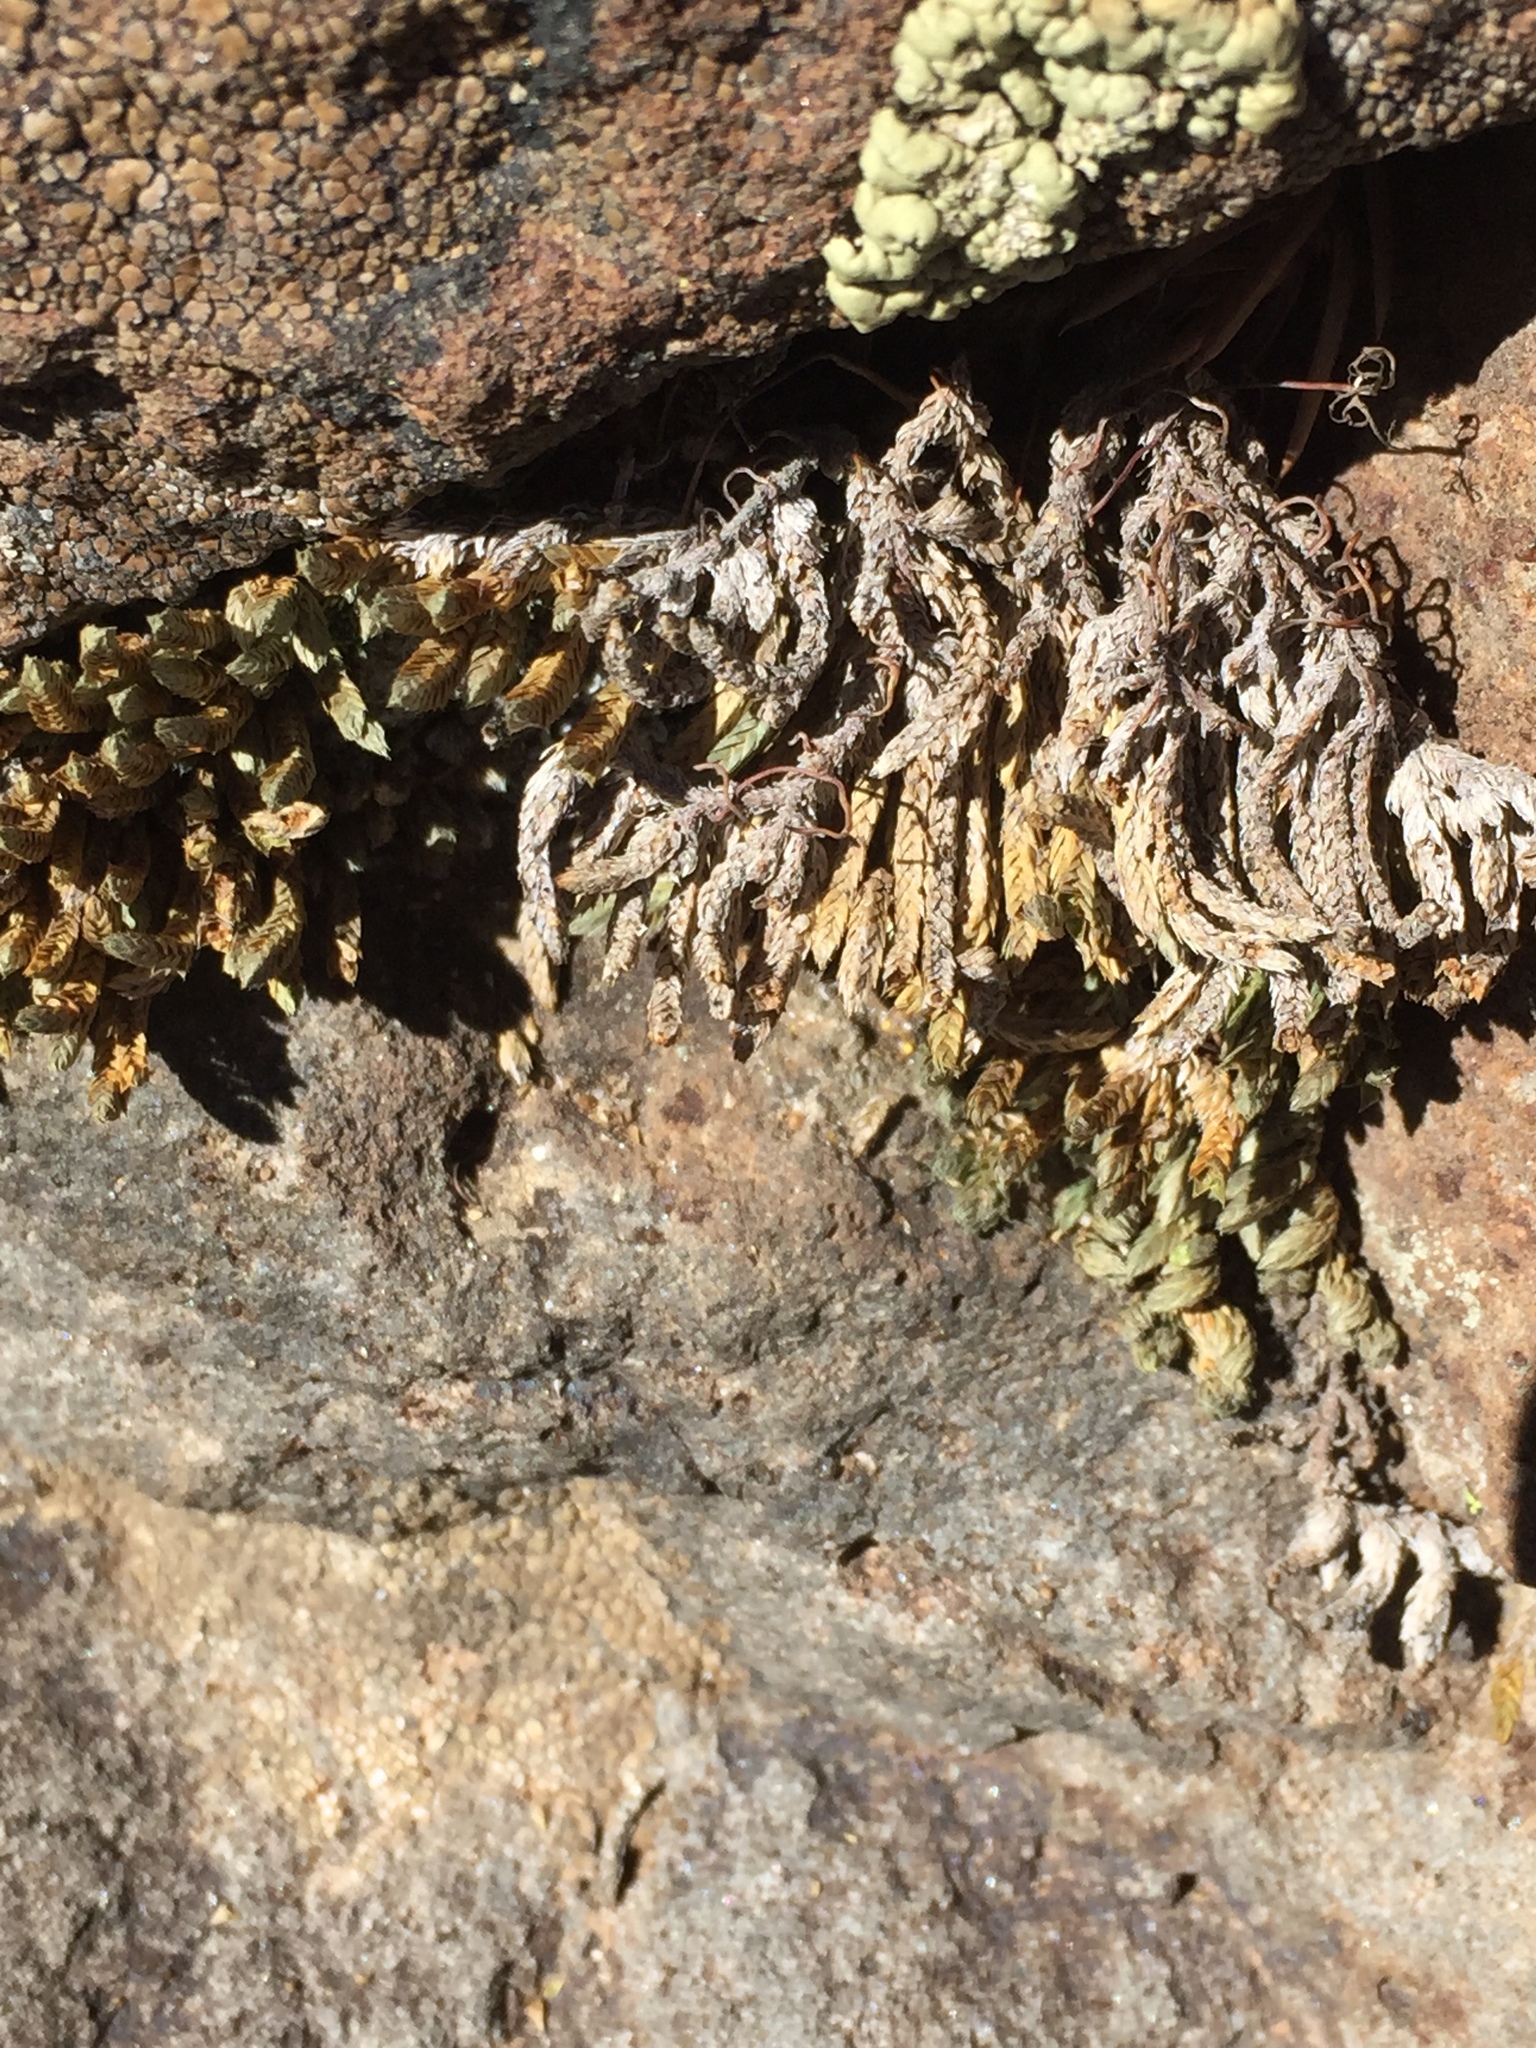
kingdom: Plantae
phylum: Tracheophyta
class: Lycopodiopsida
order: Selaginellales
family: Selaginellaceae
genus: Selaginella
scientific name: Selaginella densa
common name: Mountain spike-moss
